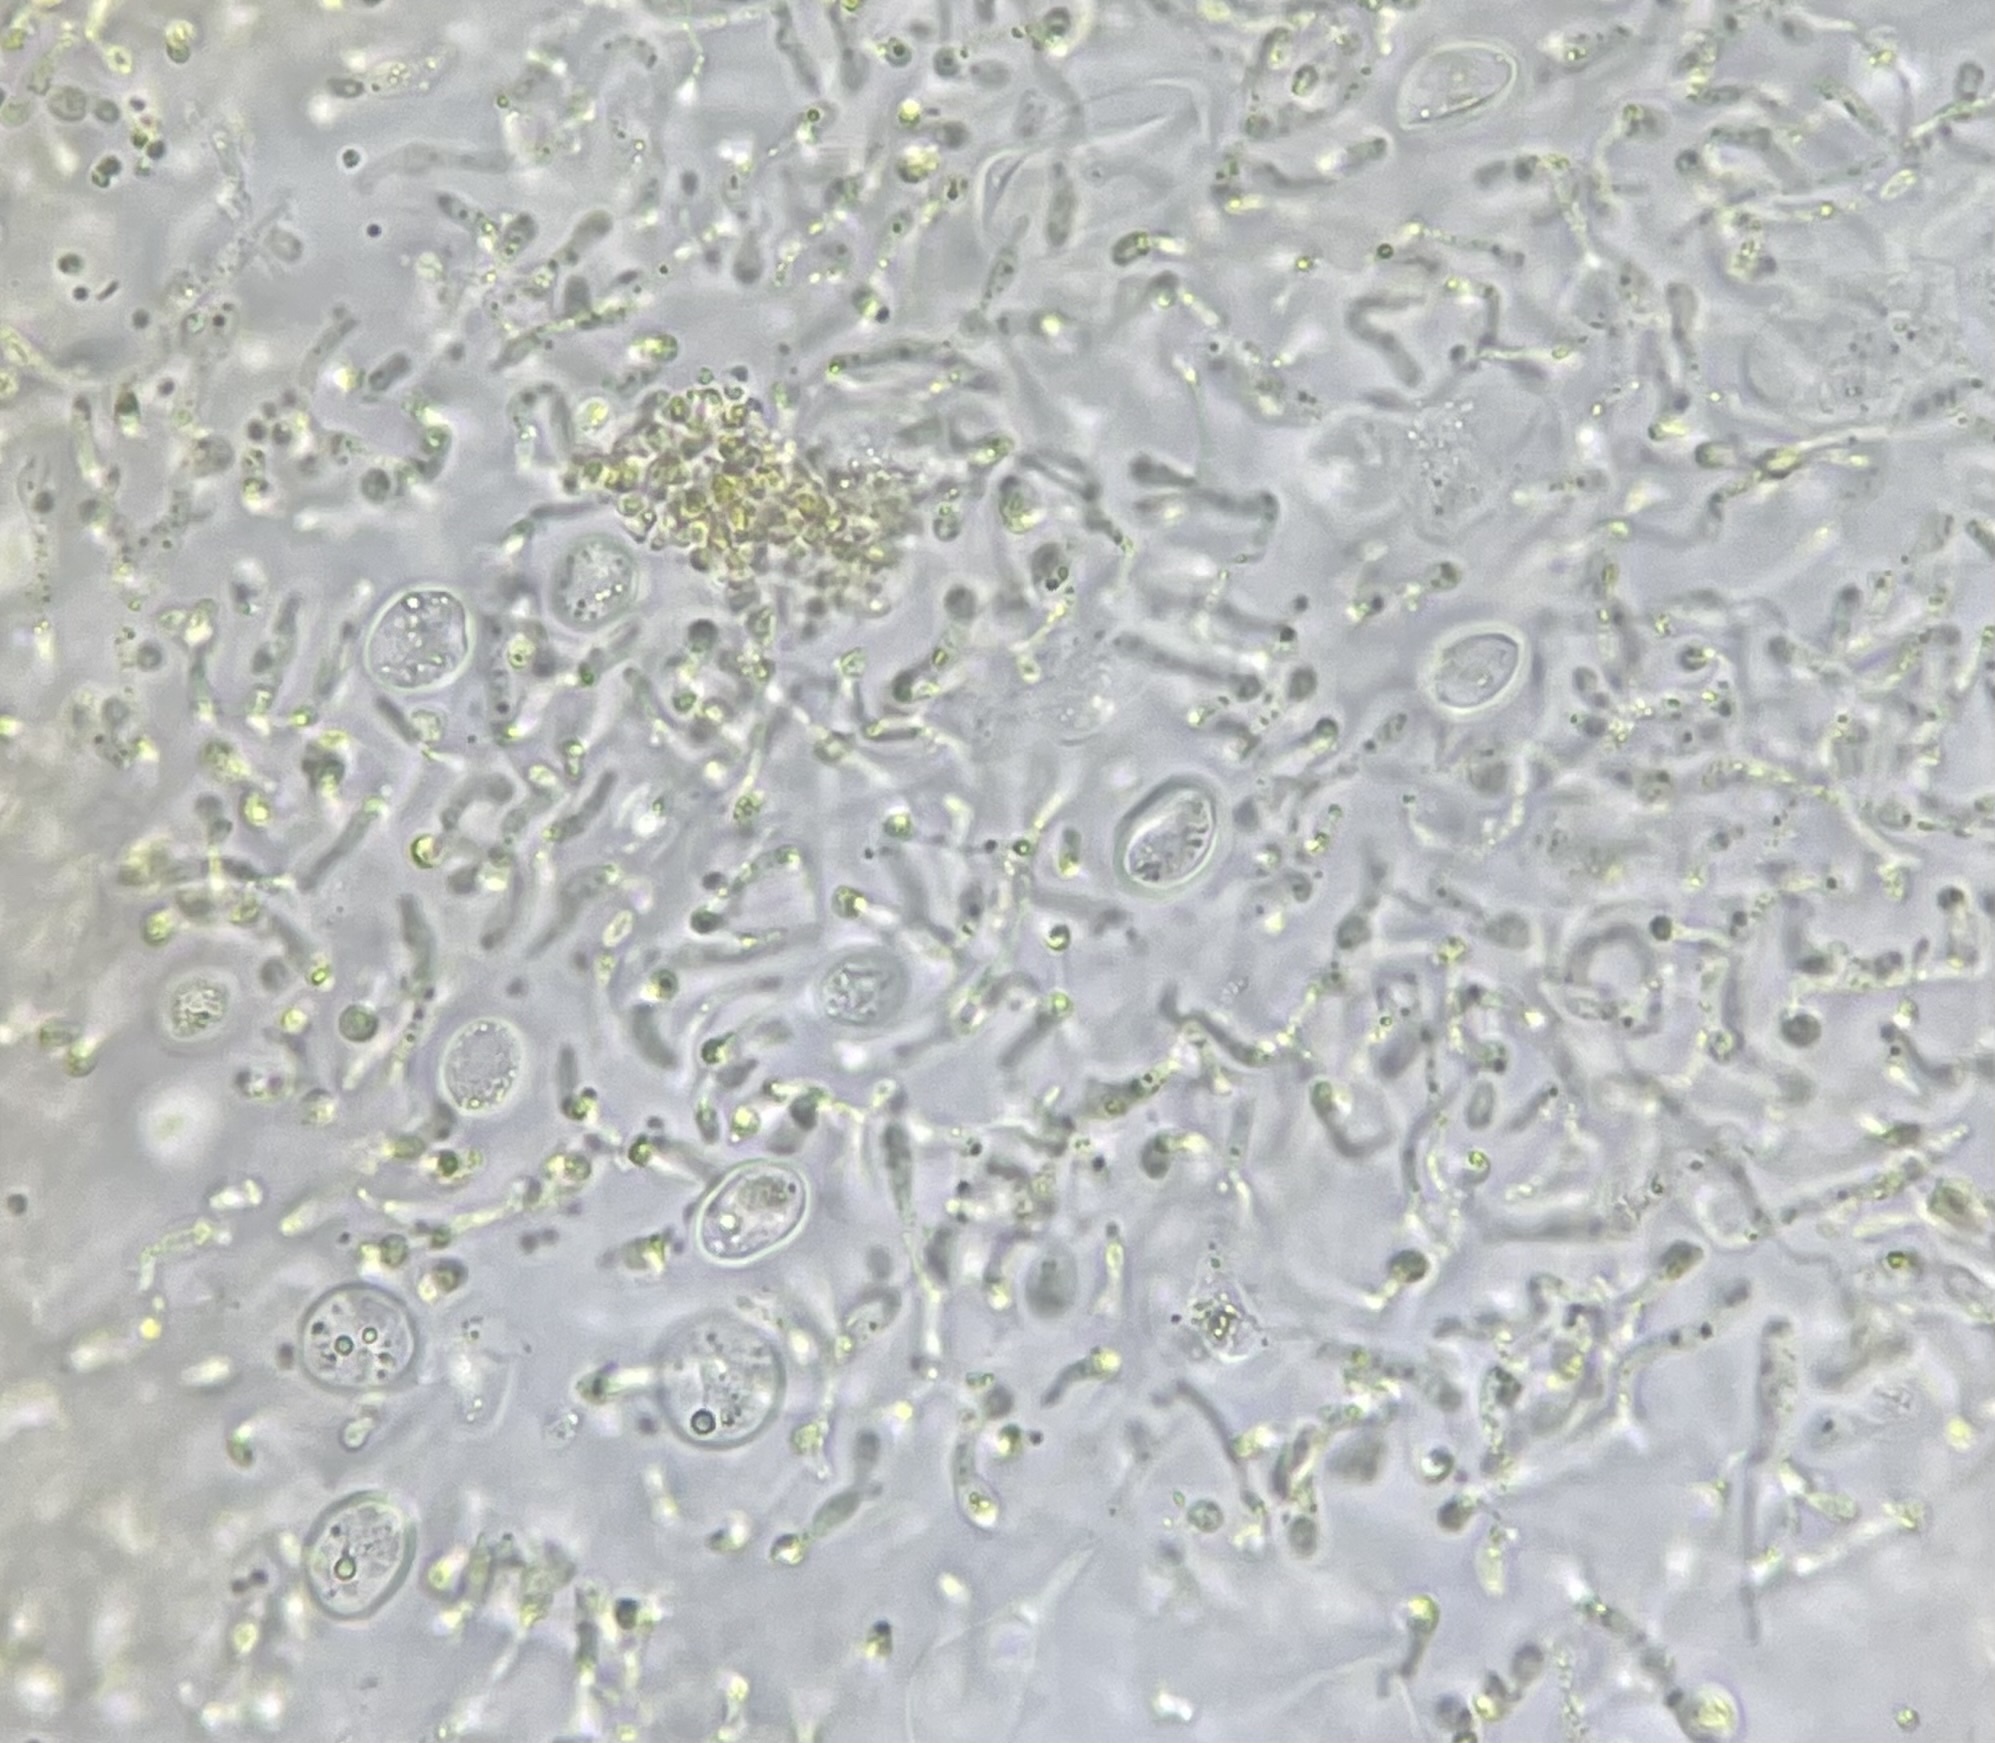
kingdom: Fungi
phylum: Basidiomycota
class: Tremellomycetes
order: Tremellales
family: Tremellaceae
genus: Tremella
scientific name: Tremella mesenterica
